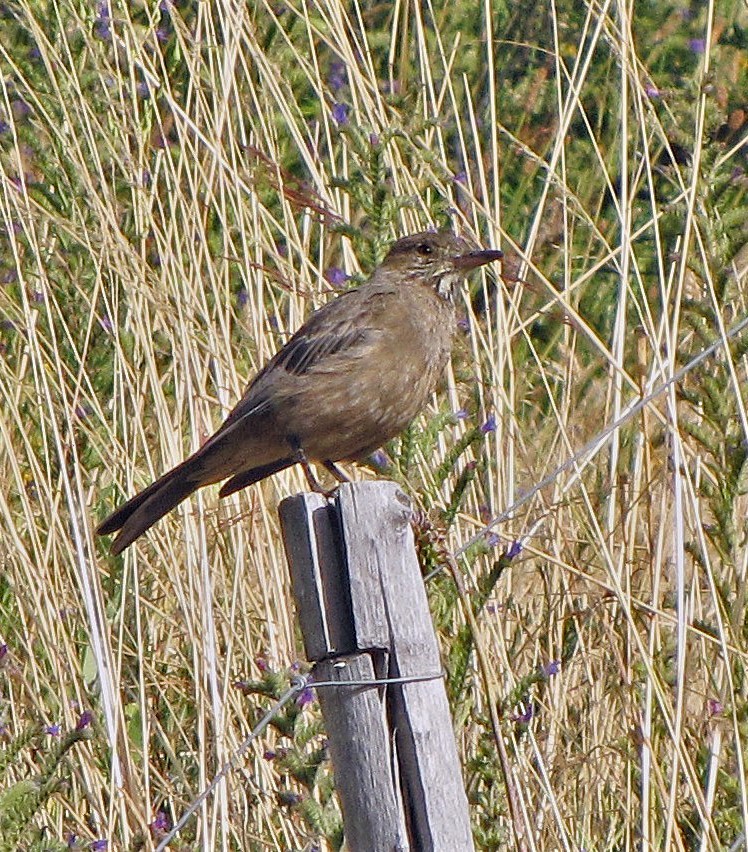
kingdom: Animalia
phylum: Chordata
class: Aves
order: Passeriformes
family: Tyrannidae
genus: Agriornis
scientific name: Agriornis lividus
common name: Great shrike-tyrant
